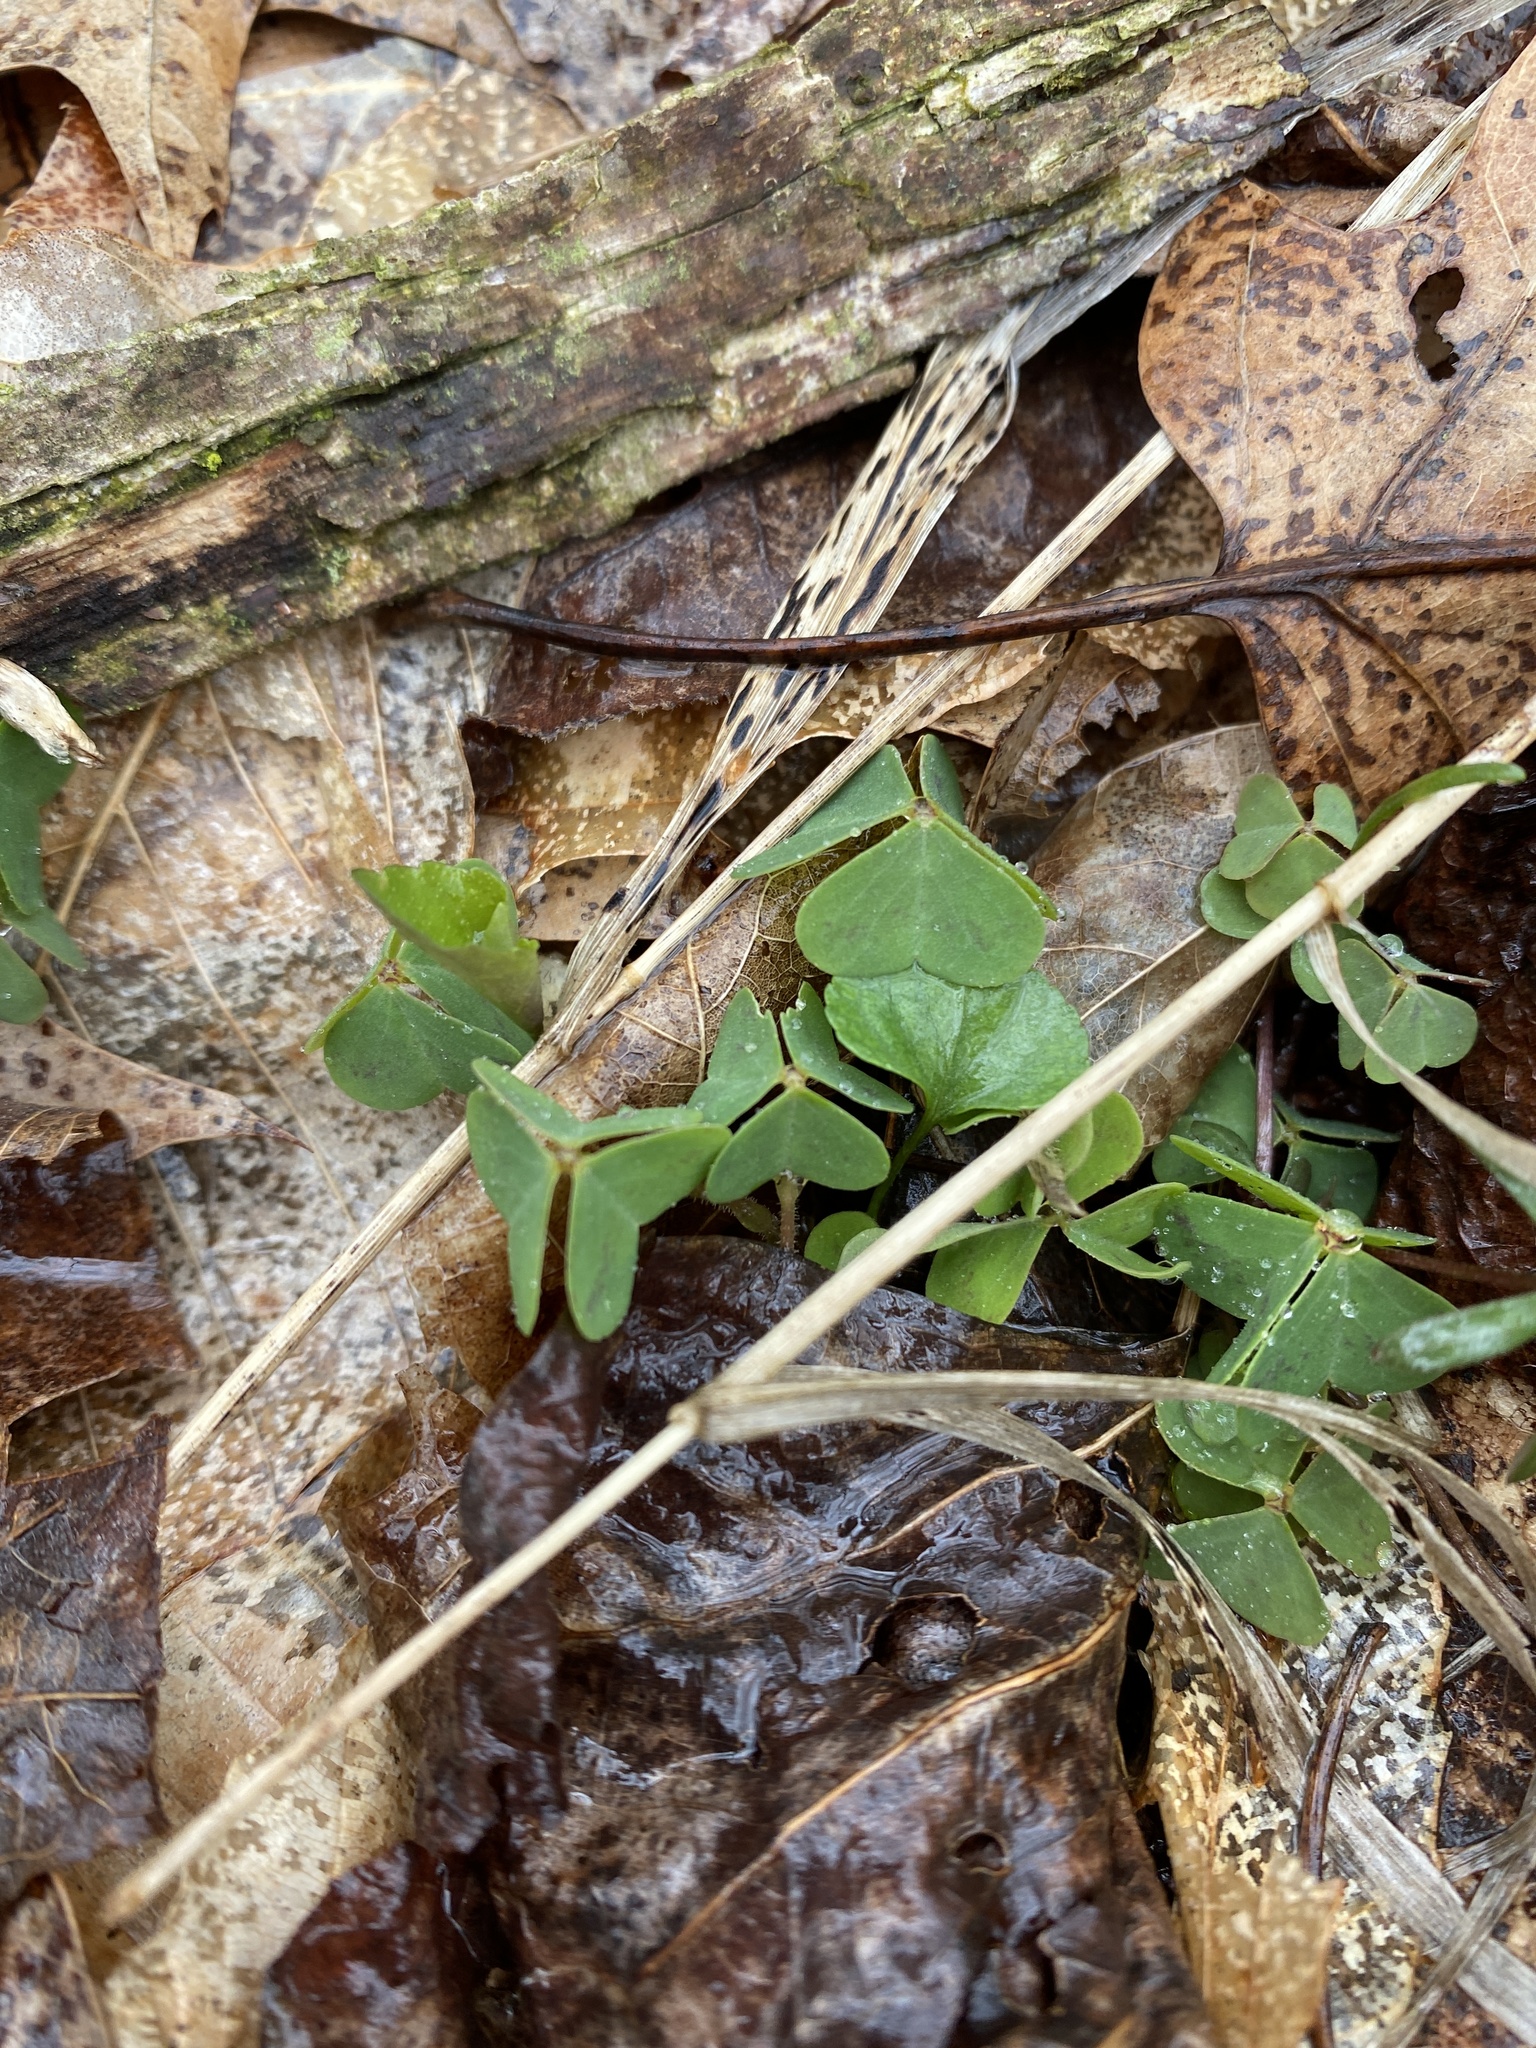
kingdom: Plantae
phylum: Tracheophyta
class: Magnoliopsida
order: Oxalidales
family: Oxalidaceae
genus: Oxalis
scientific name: Oxalis violacea
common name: Violet wood-sorrel
